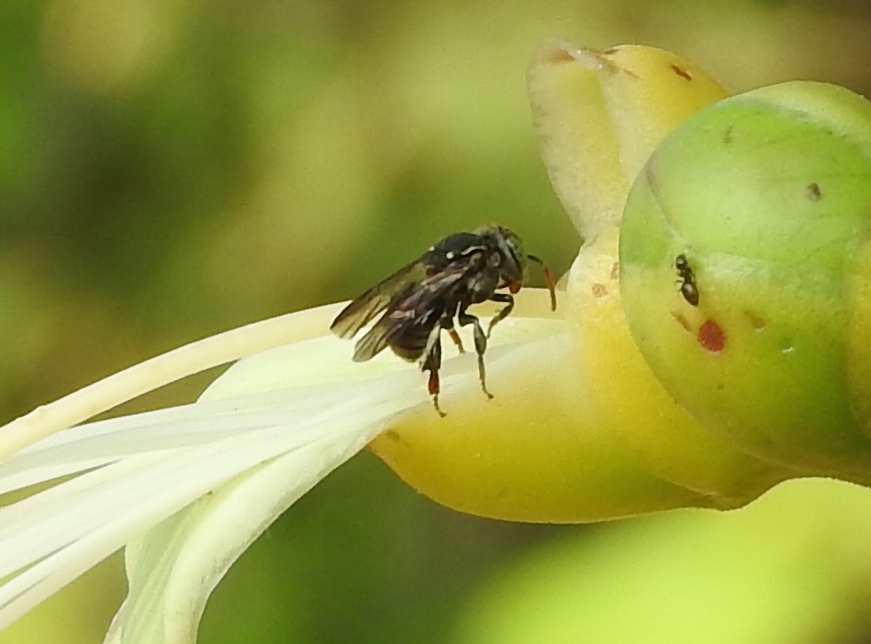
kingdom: Animalia
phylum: Arthropoda
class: Insecta
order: Hymenoptera
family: Apidae
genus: Nannotrigona
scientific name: Nannotrigona perilampoides
